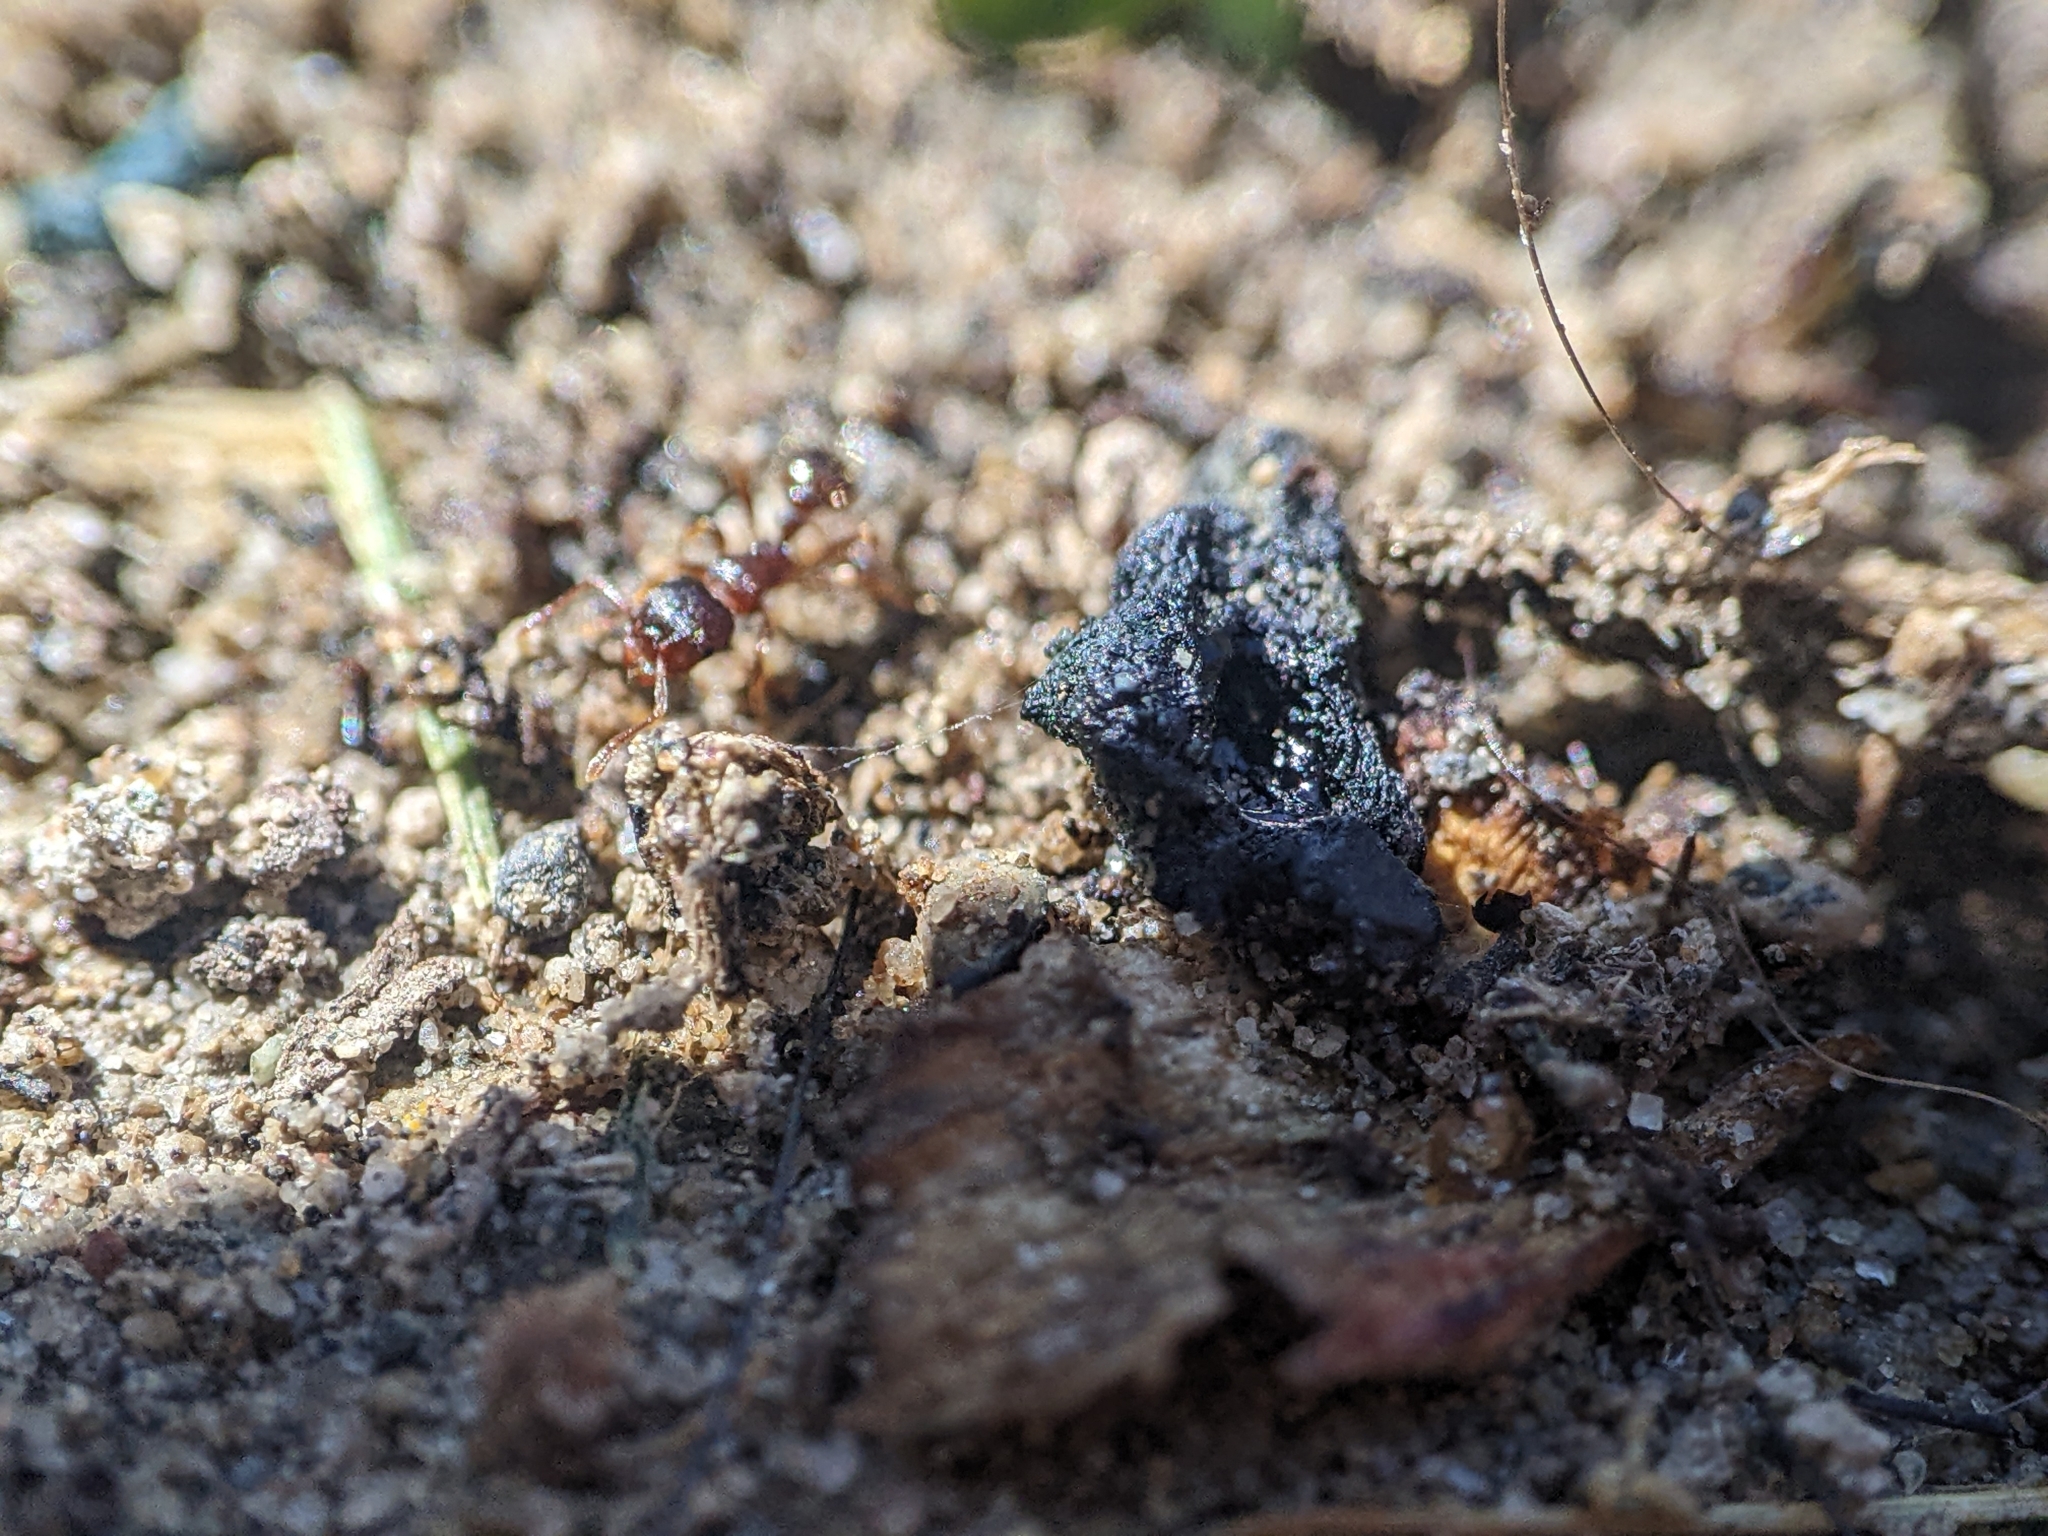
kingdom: Animalia
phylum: Arthropoda
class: Insecta
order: Hymenoptera
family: Formicidae
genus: Tetramorium
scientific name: Tetramorium immigrans
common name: Pavement ant
